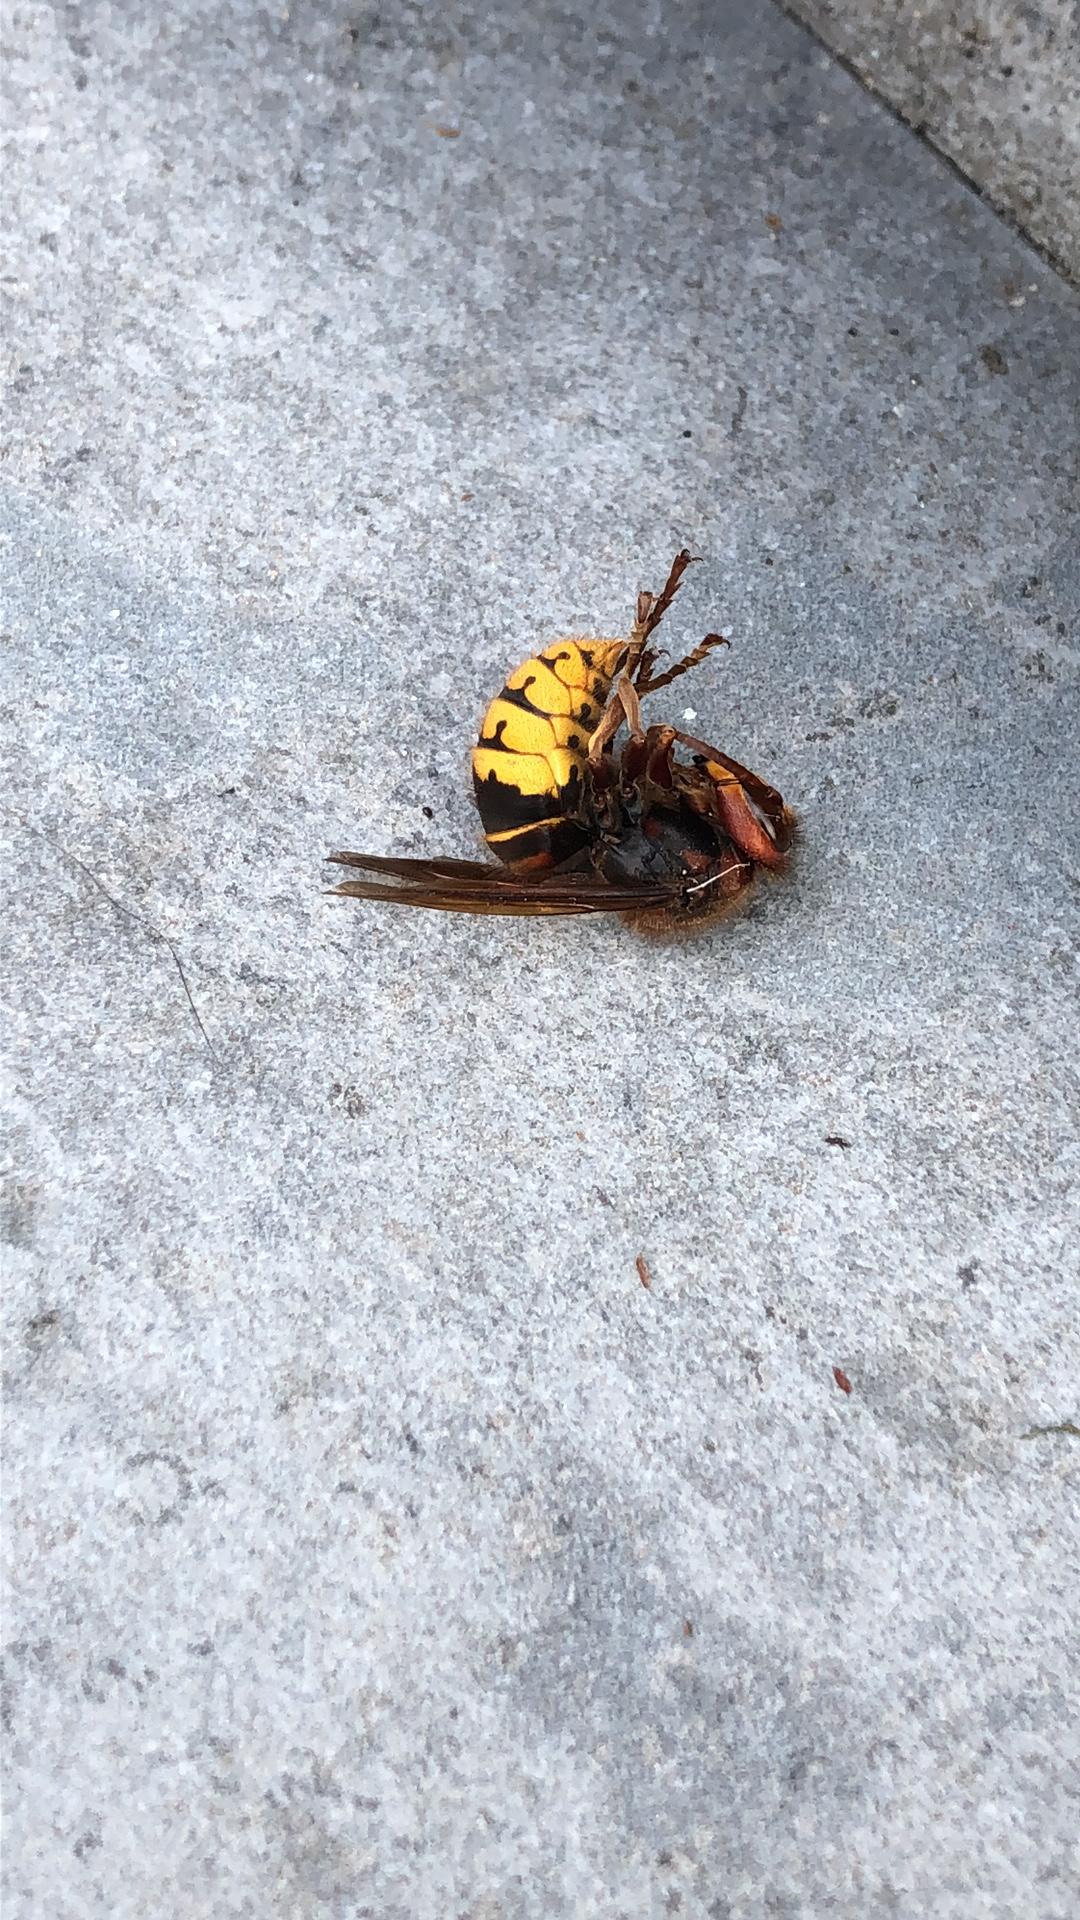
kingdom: Animalia
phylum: Arthropoda
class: Insecta
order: Hymenoptera
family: Vespidae
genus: Vespa
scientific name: Vespa crabro
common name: Hornet
